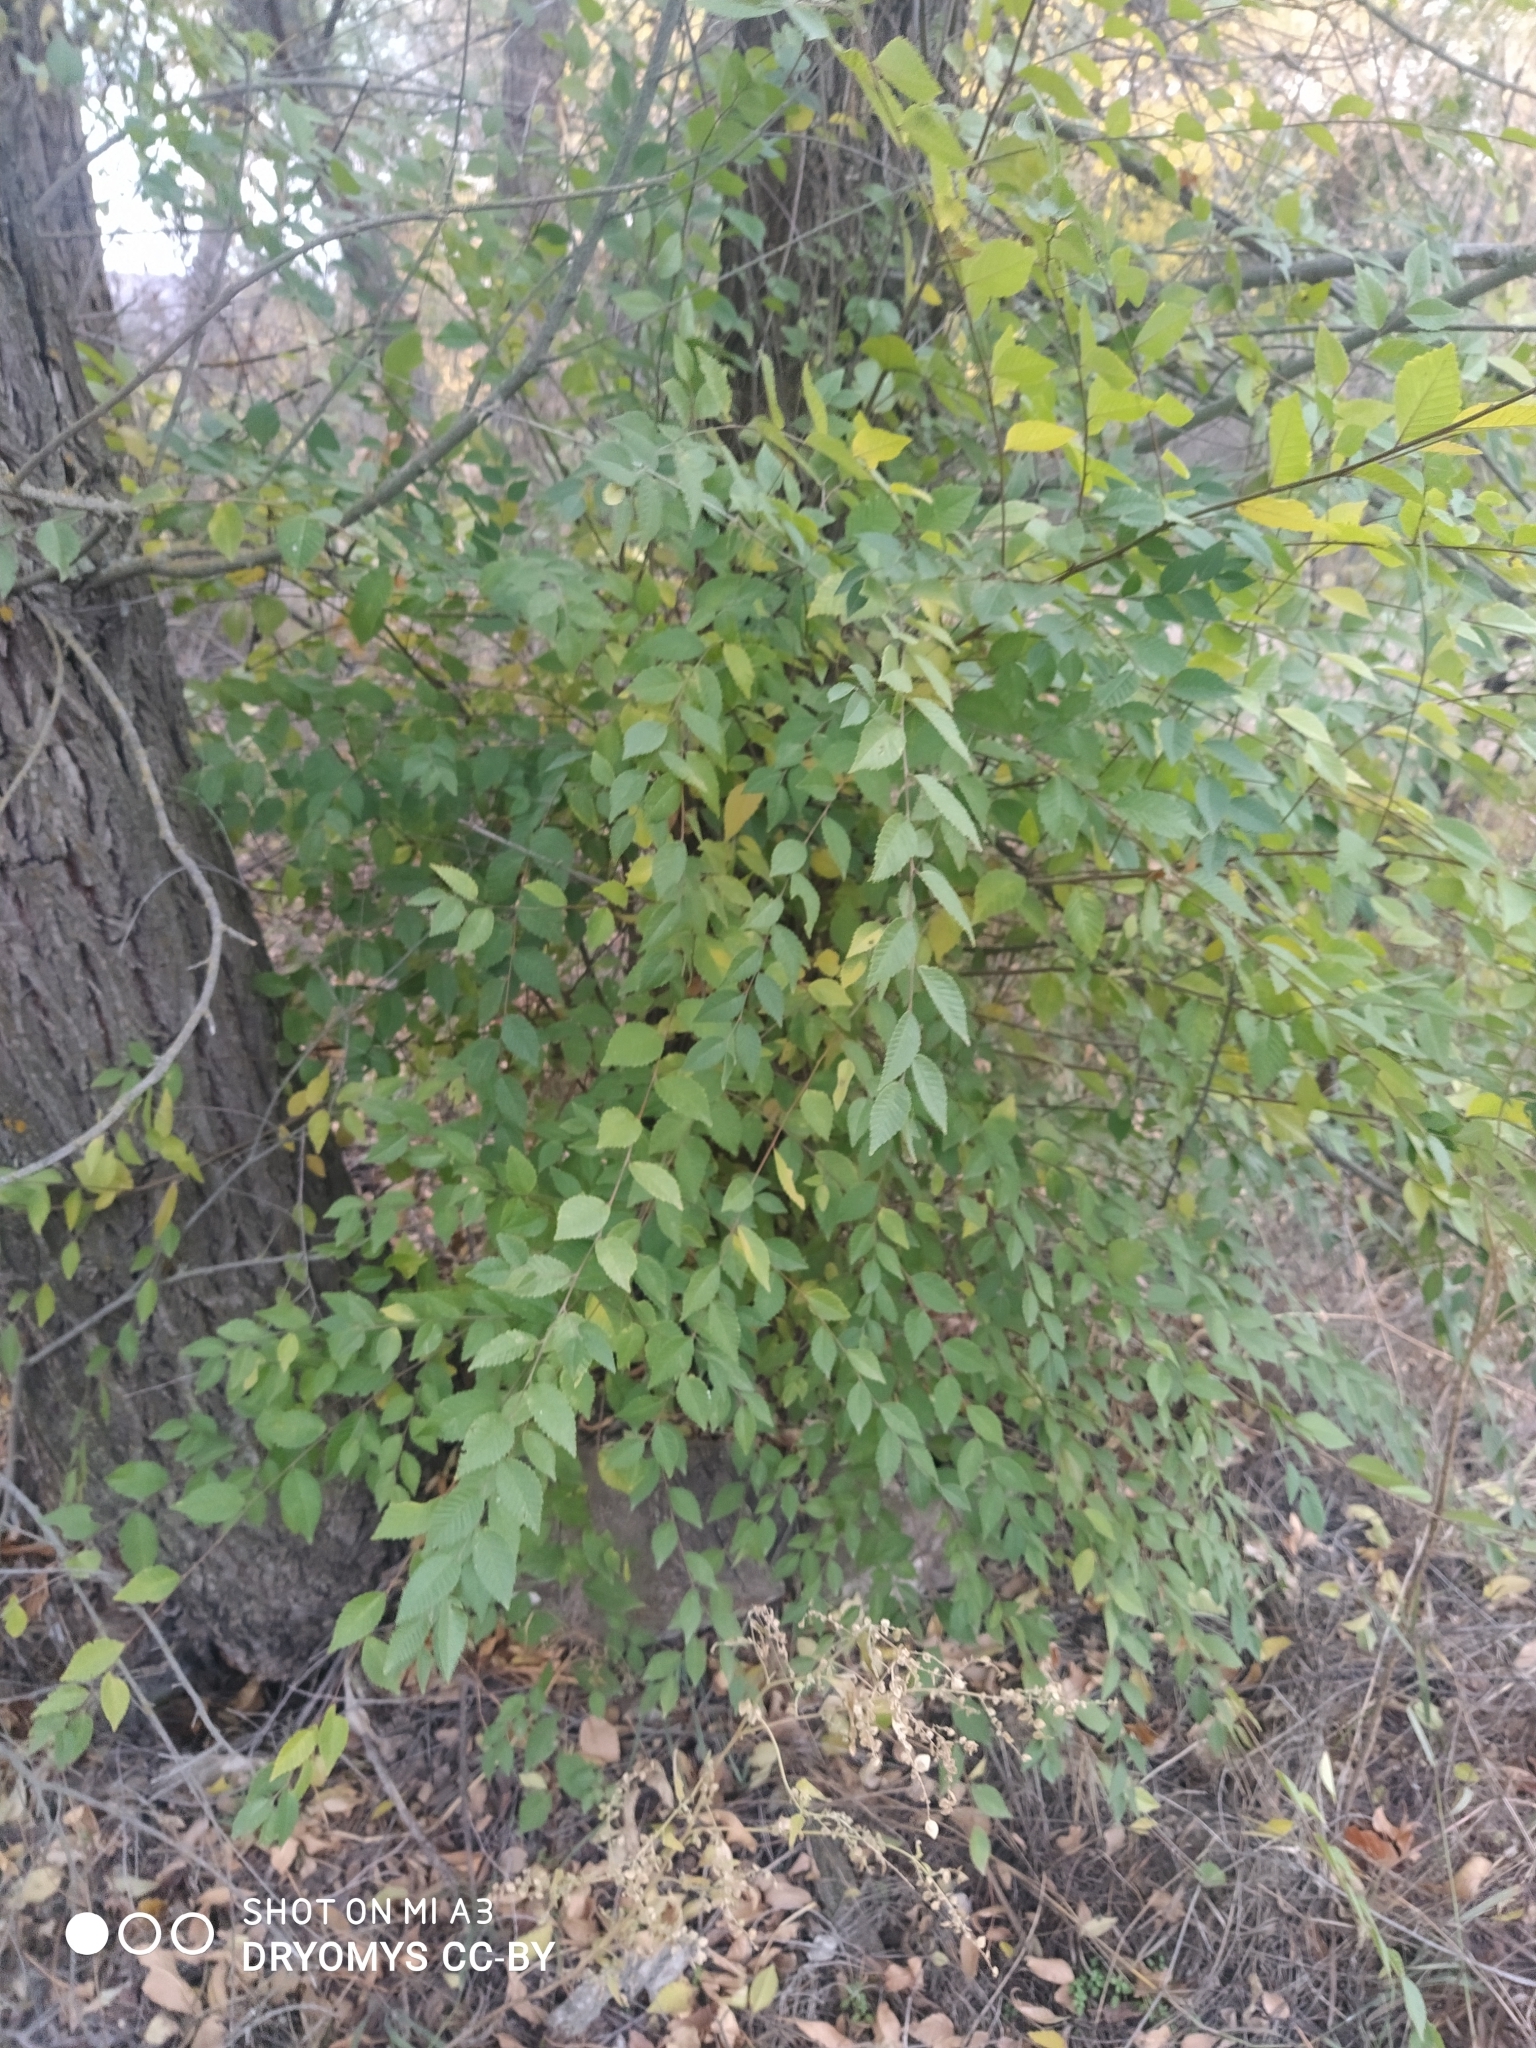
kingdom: Plantae
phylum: Tracheophyta
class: Magnoliopsida
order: Rosales
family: Ulmaceae
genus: Ulmus
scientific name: Ulmus pumila
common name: Siberian elm
